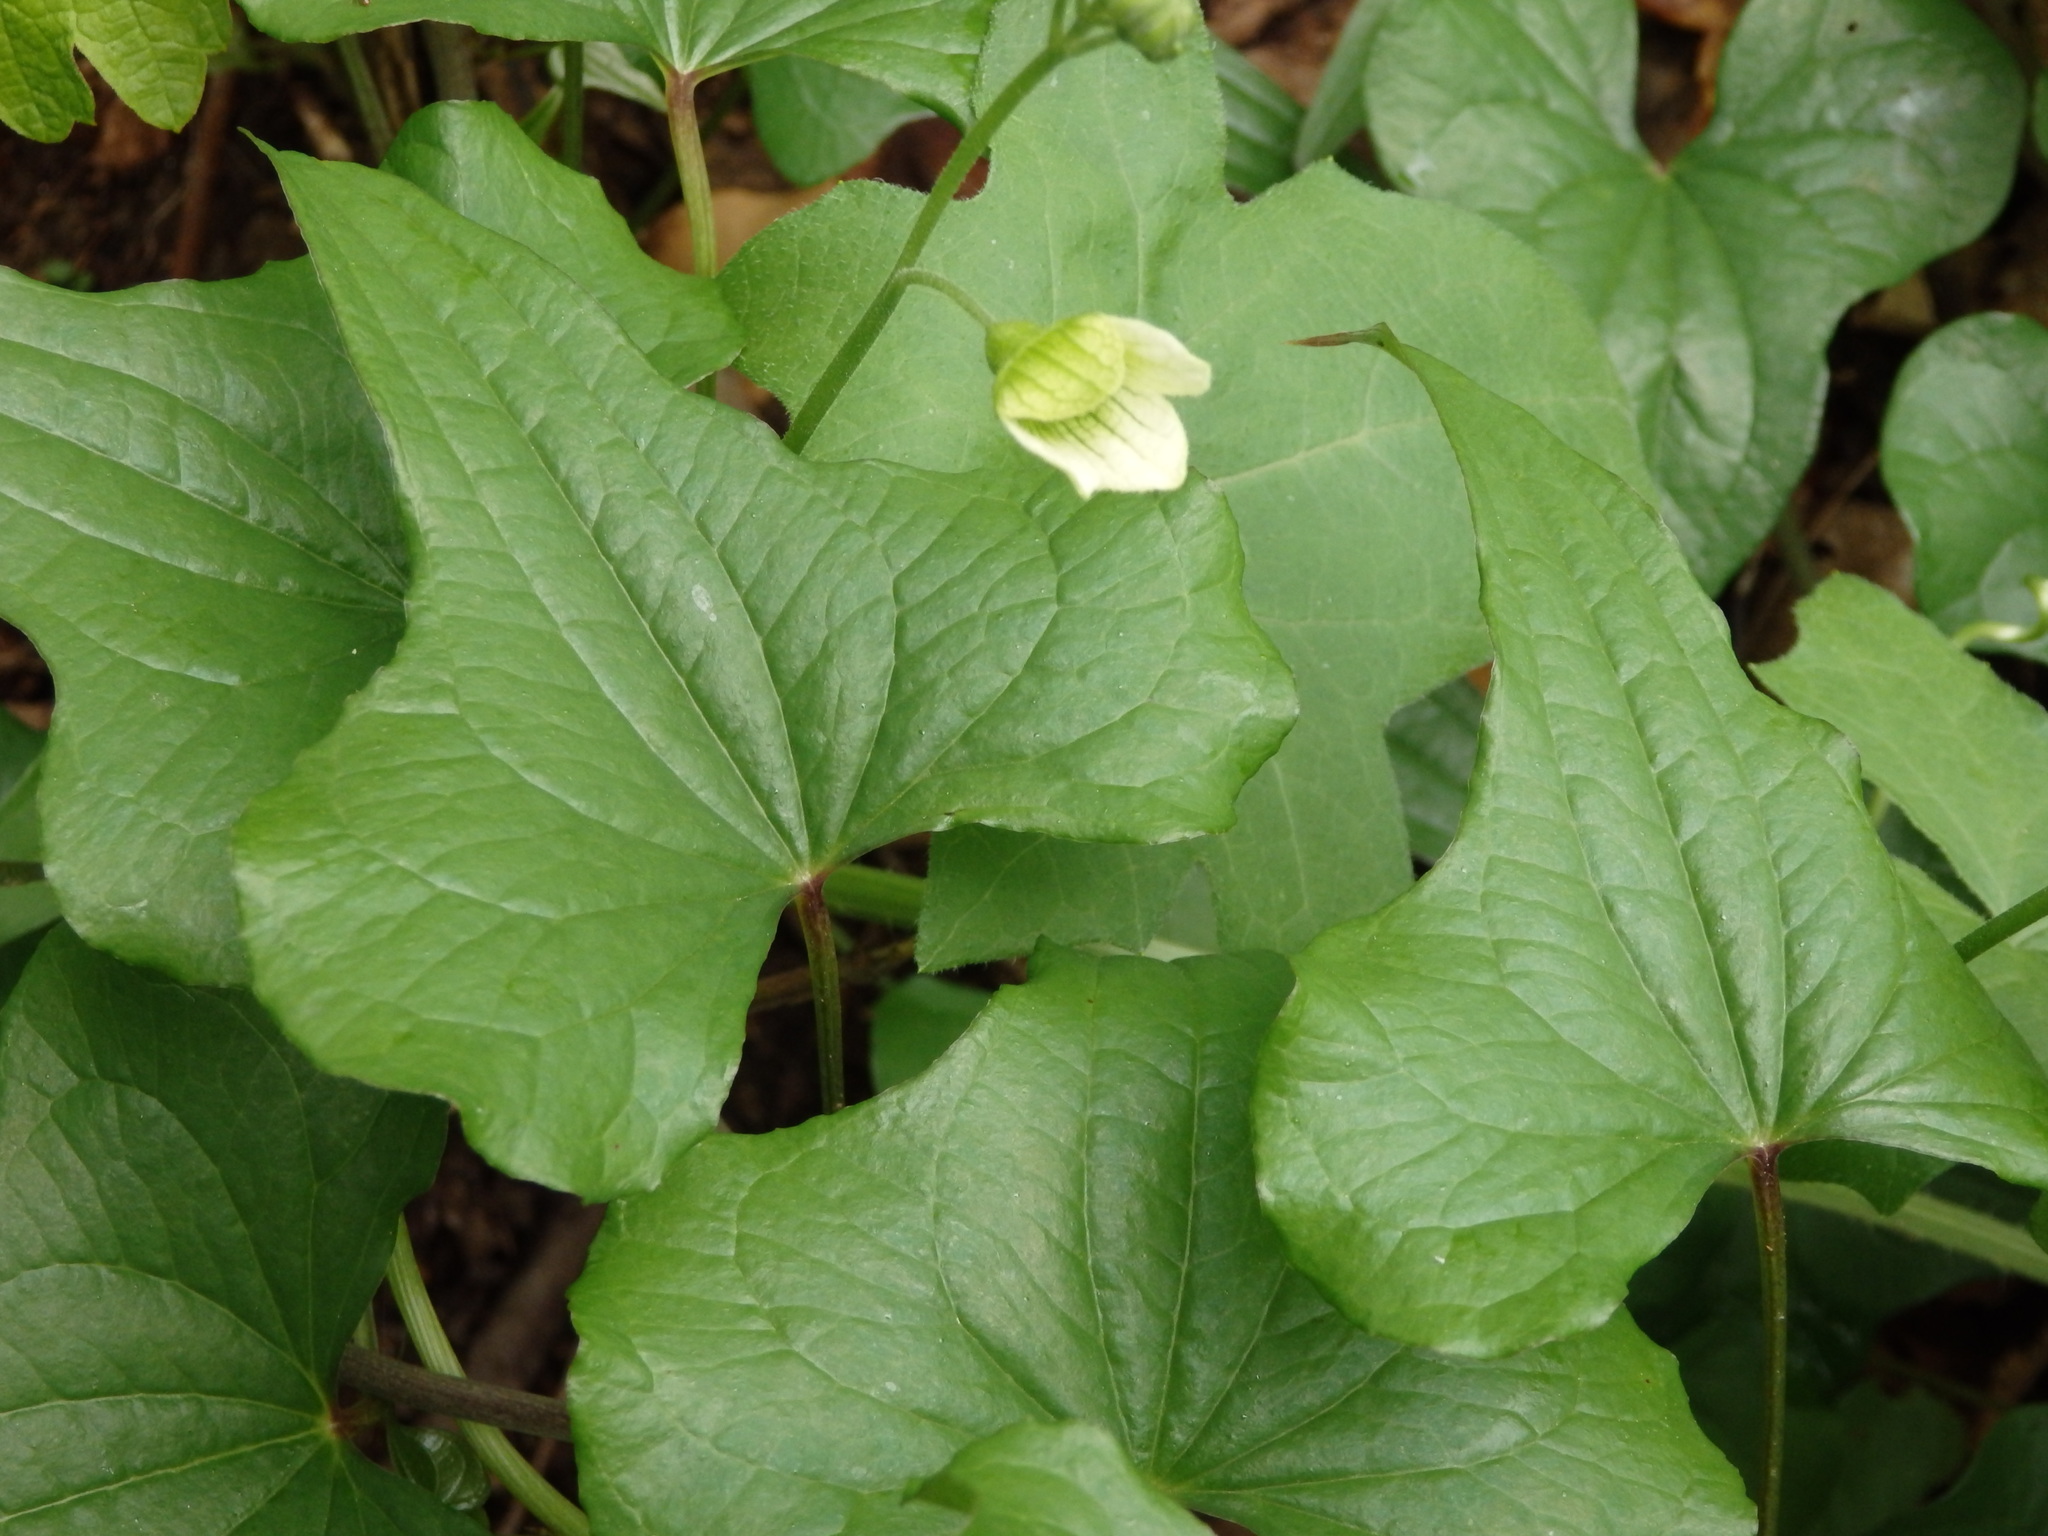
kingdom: Plantae
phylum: Tracheophyta
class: Magnoliopsida
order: Cucurbitales
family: Cucurbitaceae
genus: Bryonia
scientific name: Bryonia dioica
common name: White bryony
